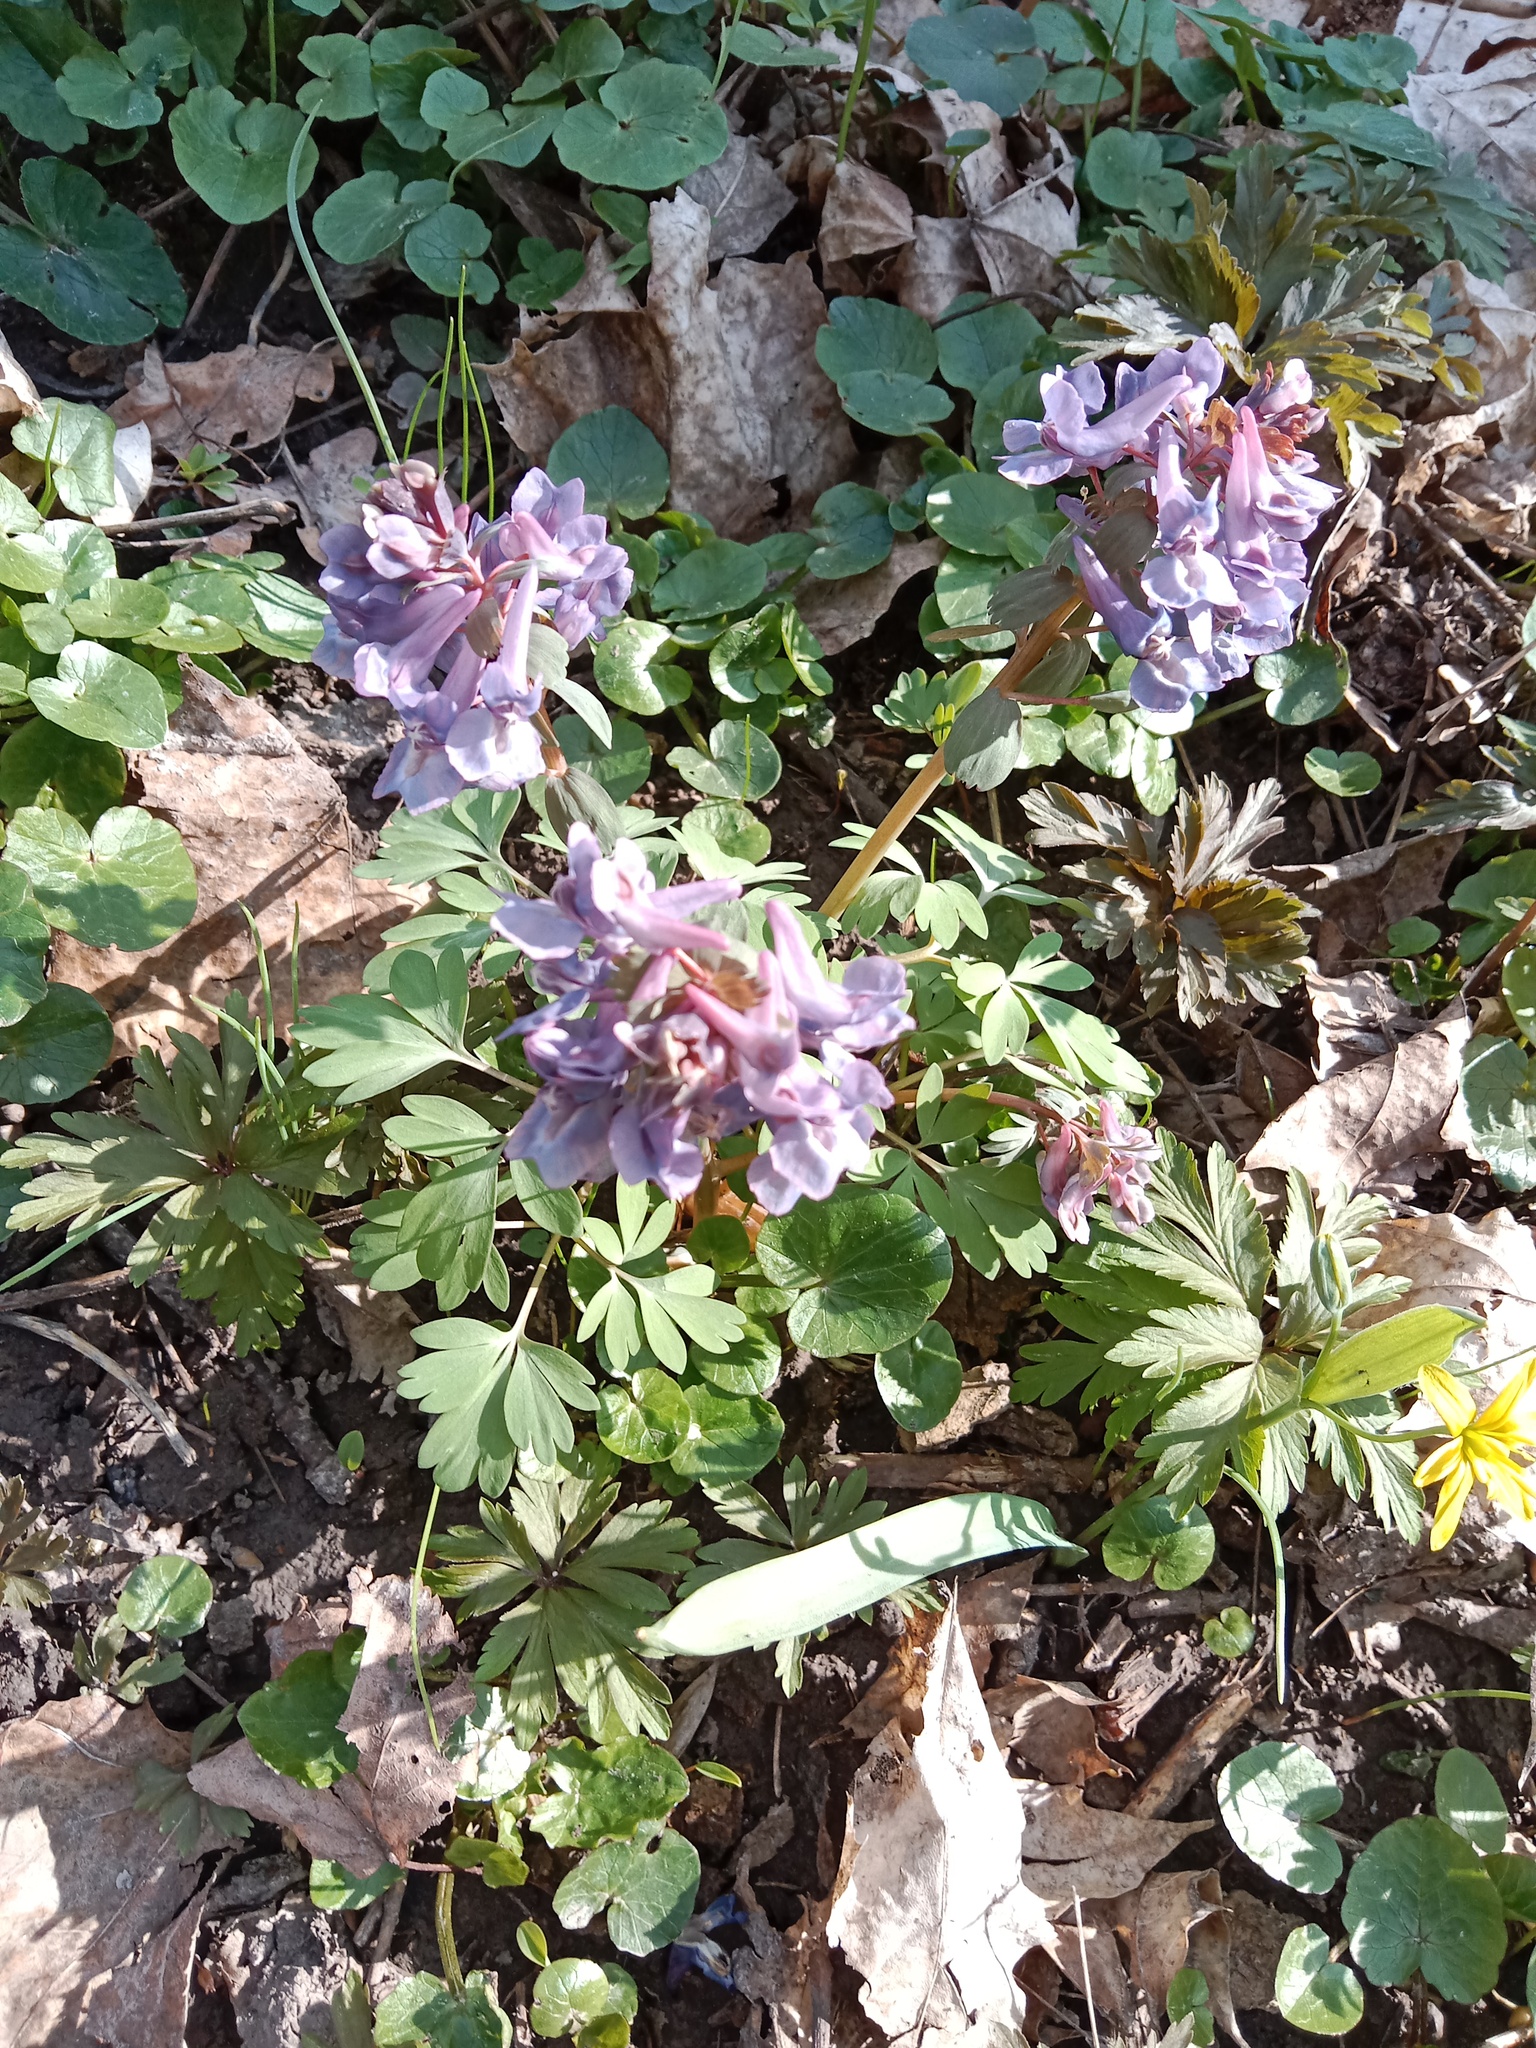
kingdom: Plantae
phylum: Tracheophyta
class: Magnoliopsida
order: Ranunculales
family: Papaveraceae
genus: Corydalis
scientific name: Corydalis solida
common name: Bird-in-a-bush
